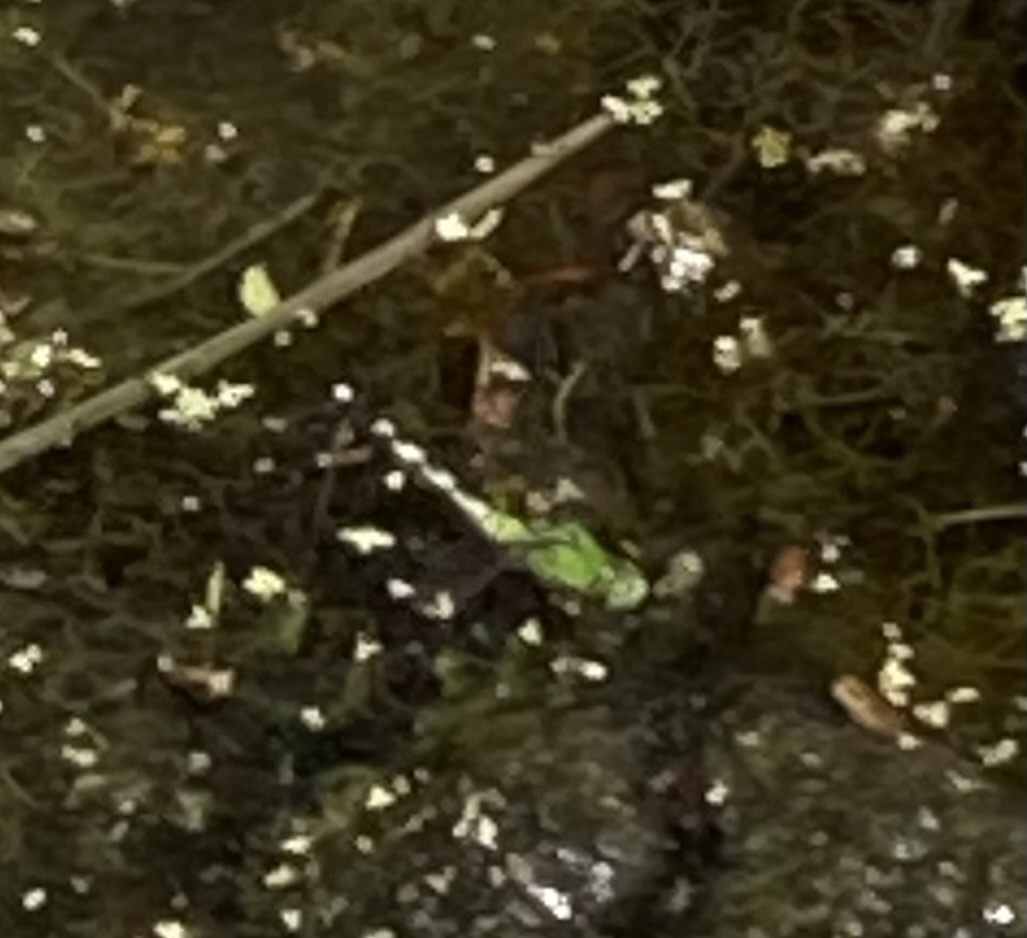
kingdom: Animalia
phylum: Arthropoda
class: Insecta
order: Odonata
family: Libellulidae
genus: Erythemis
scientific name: Erythemis simplicicollis
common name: Eastern pondhawk
